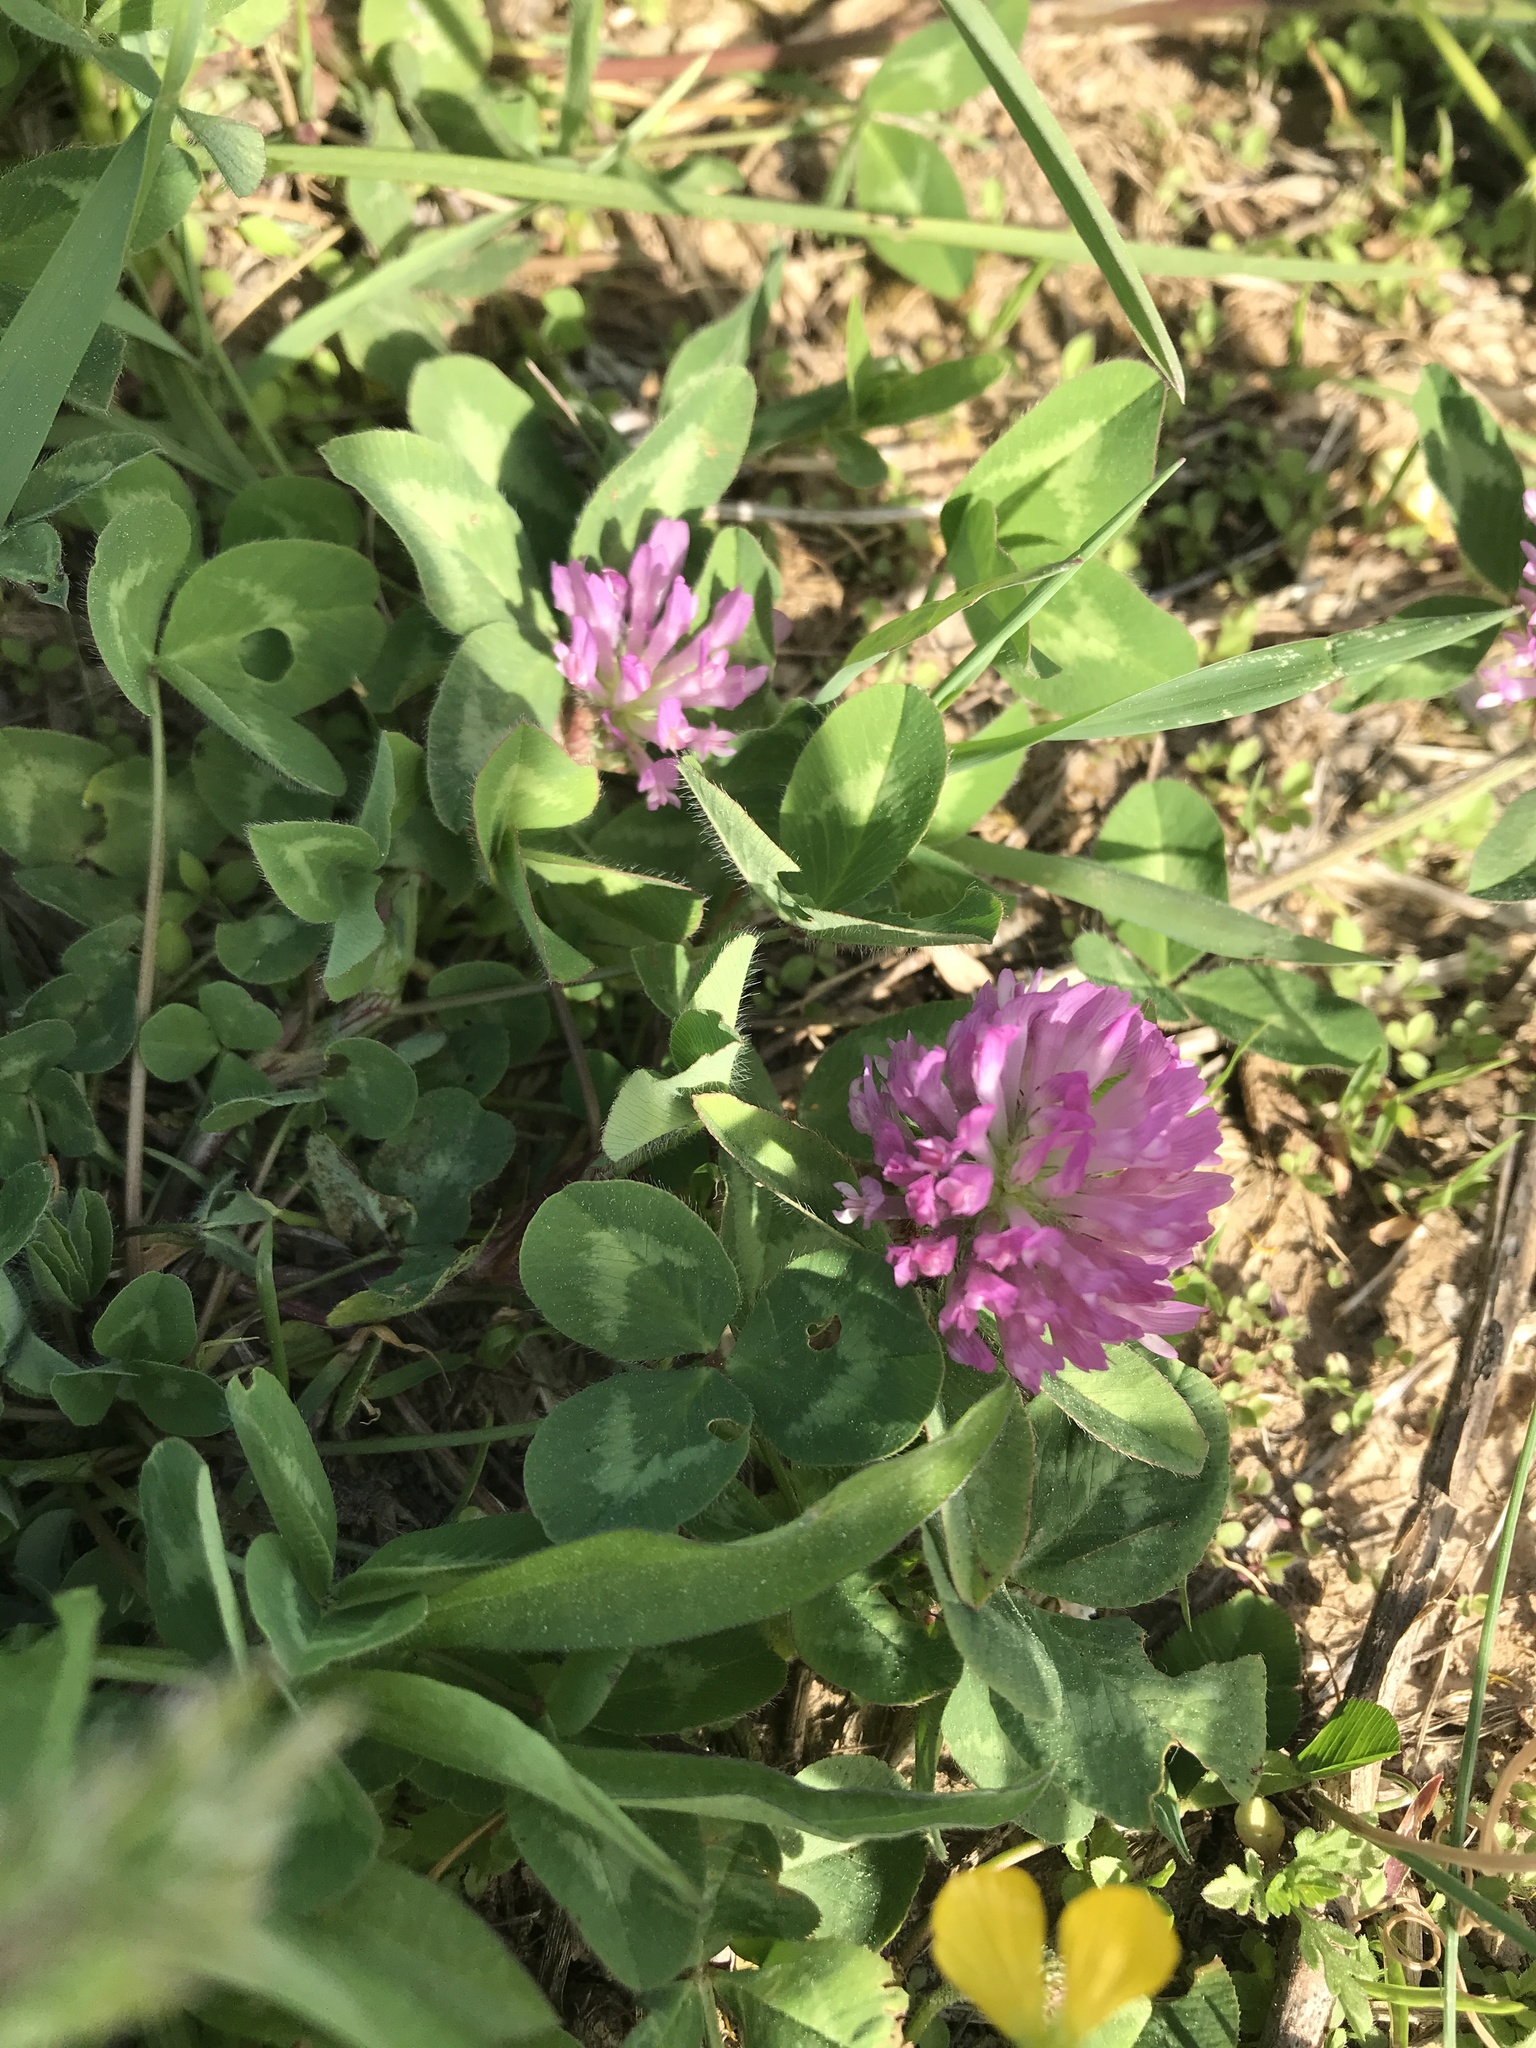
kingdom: Plantae
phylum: Tracheophyta
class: Magnoliopsida
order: Fabales
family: Fabaceae
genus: Trifolium
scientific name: Trifolium pratense
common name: Red clover
